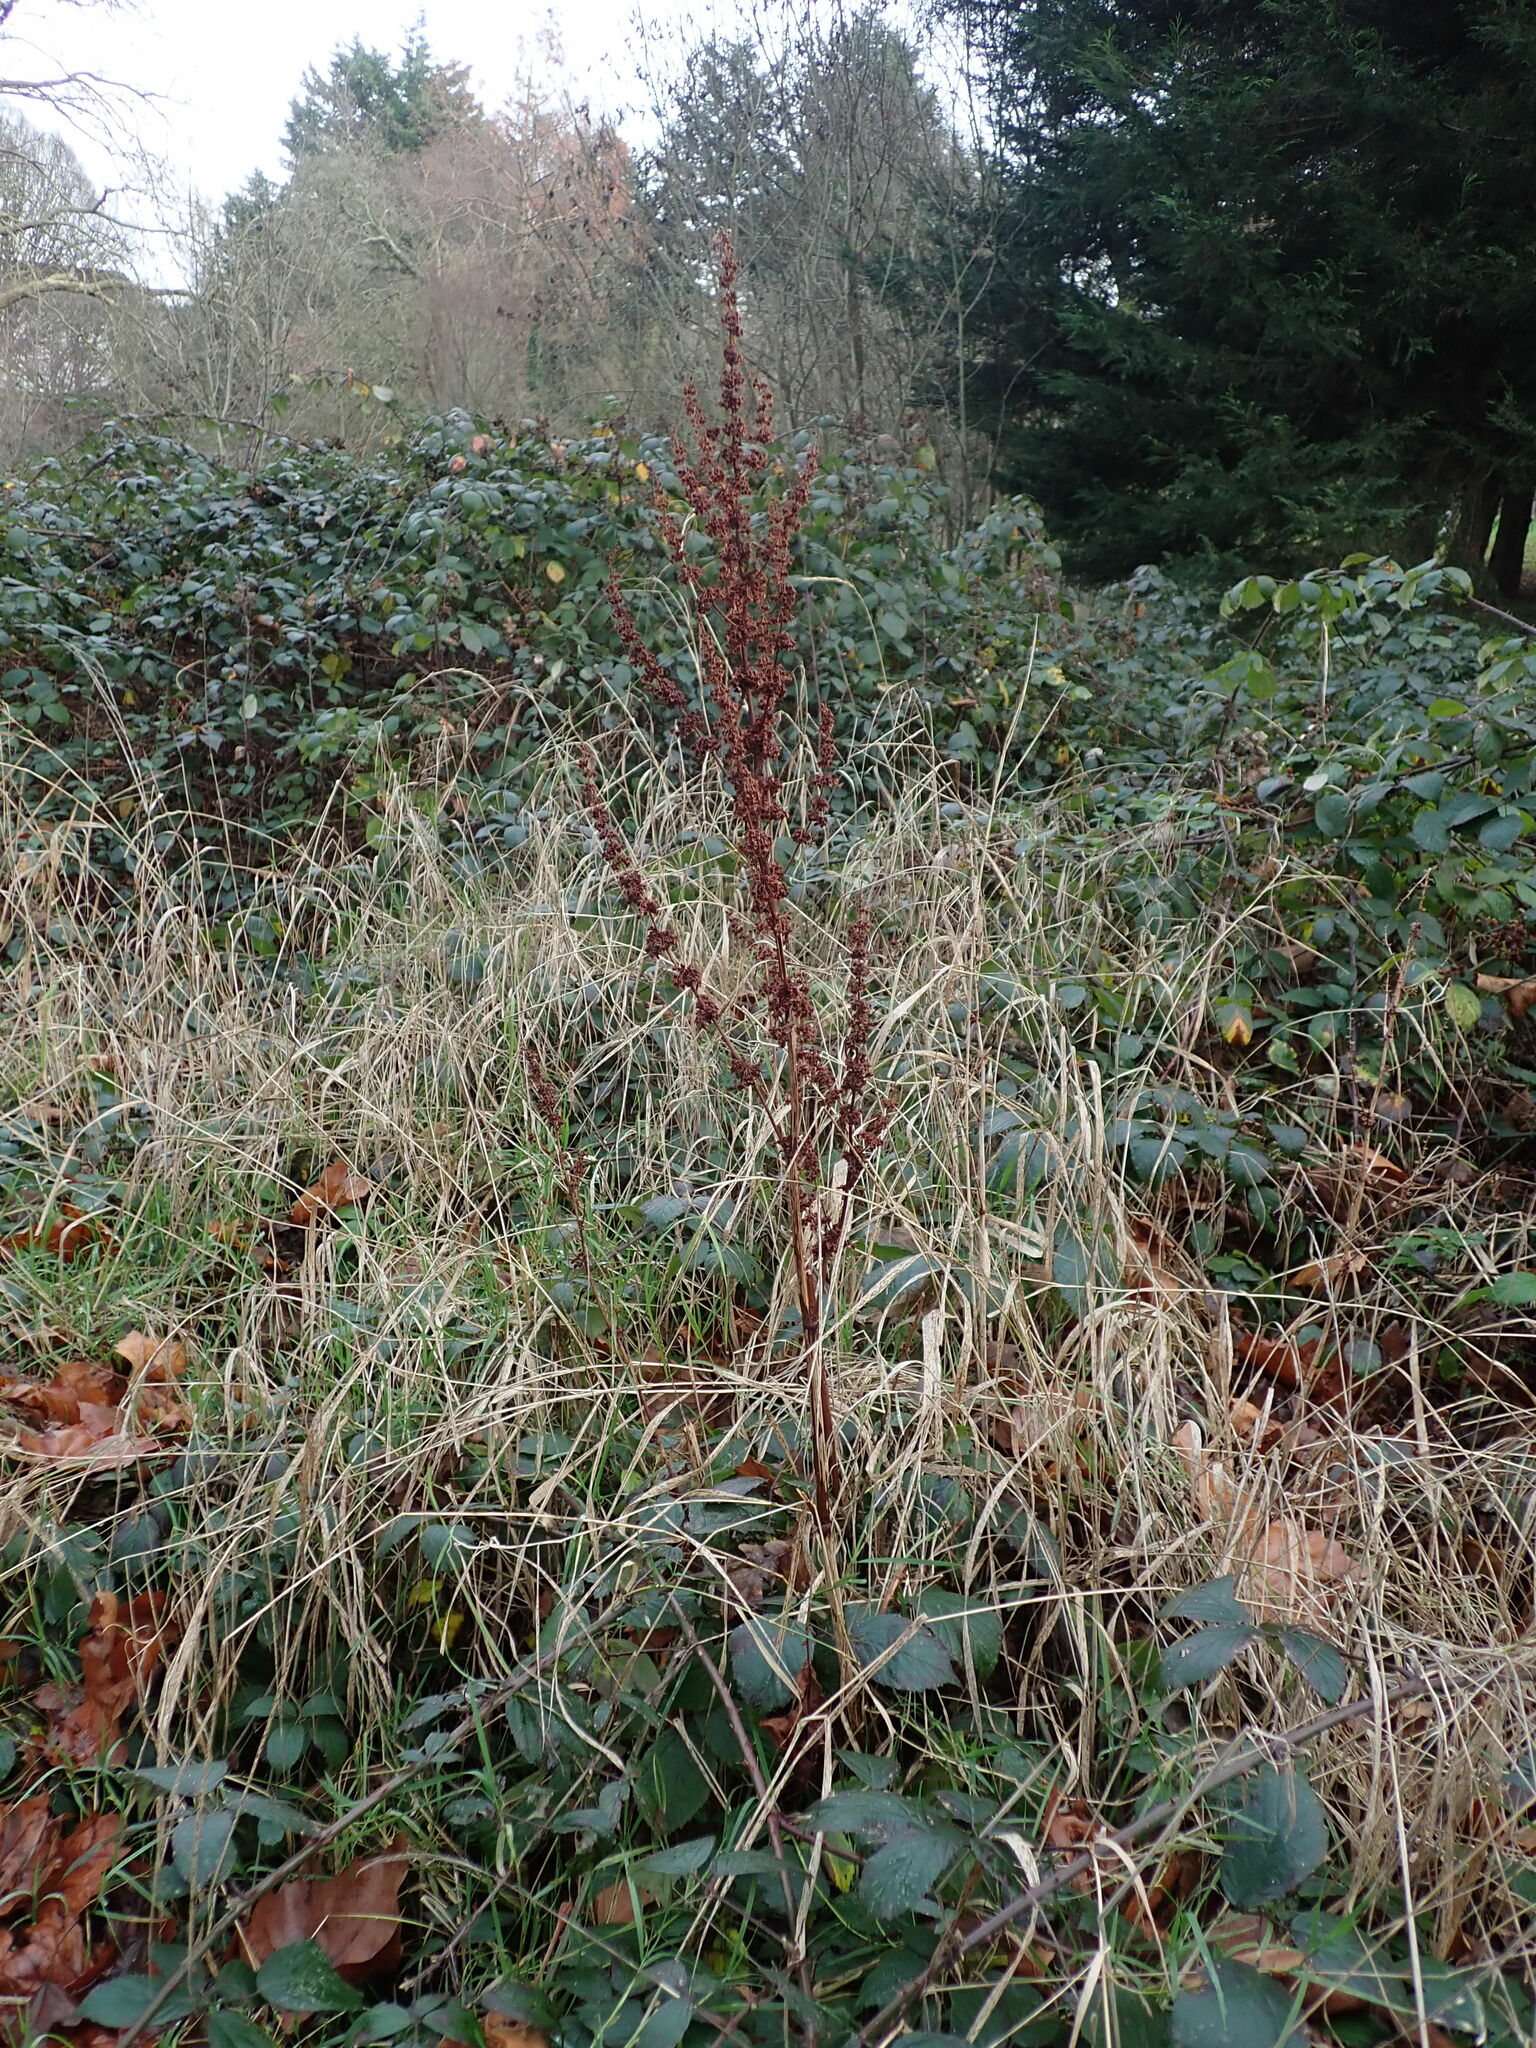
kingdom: Plantae
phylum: Tracheophyta
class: Magnoliopsida
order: Caryophyllales
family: Polygonaceae
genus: Rumex
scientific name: Rumex obtusifolius
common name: Bitter dock
